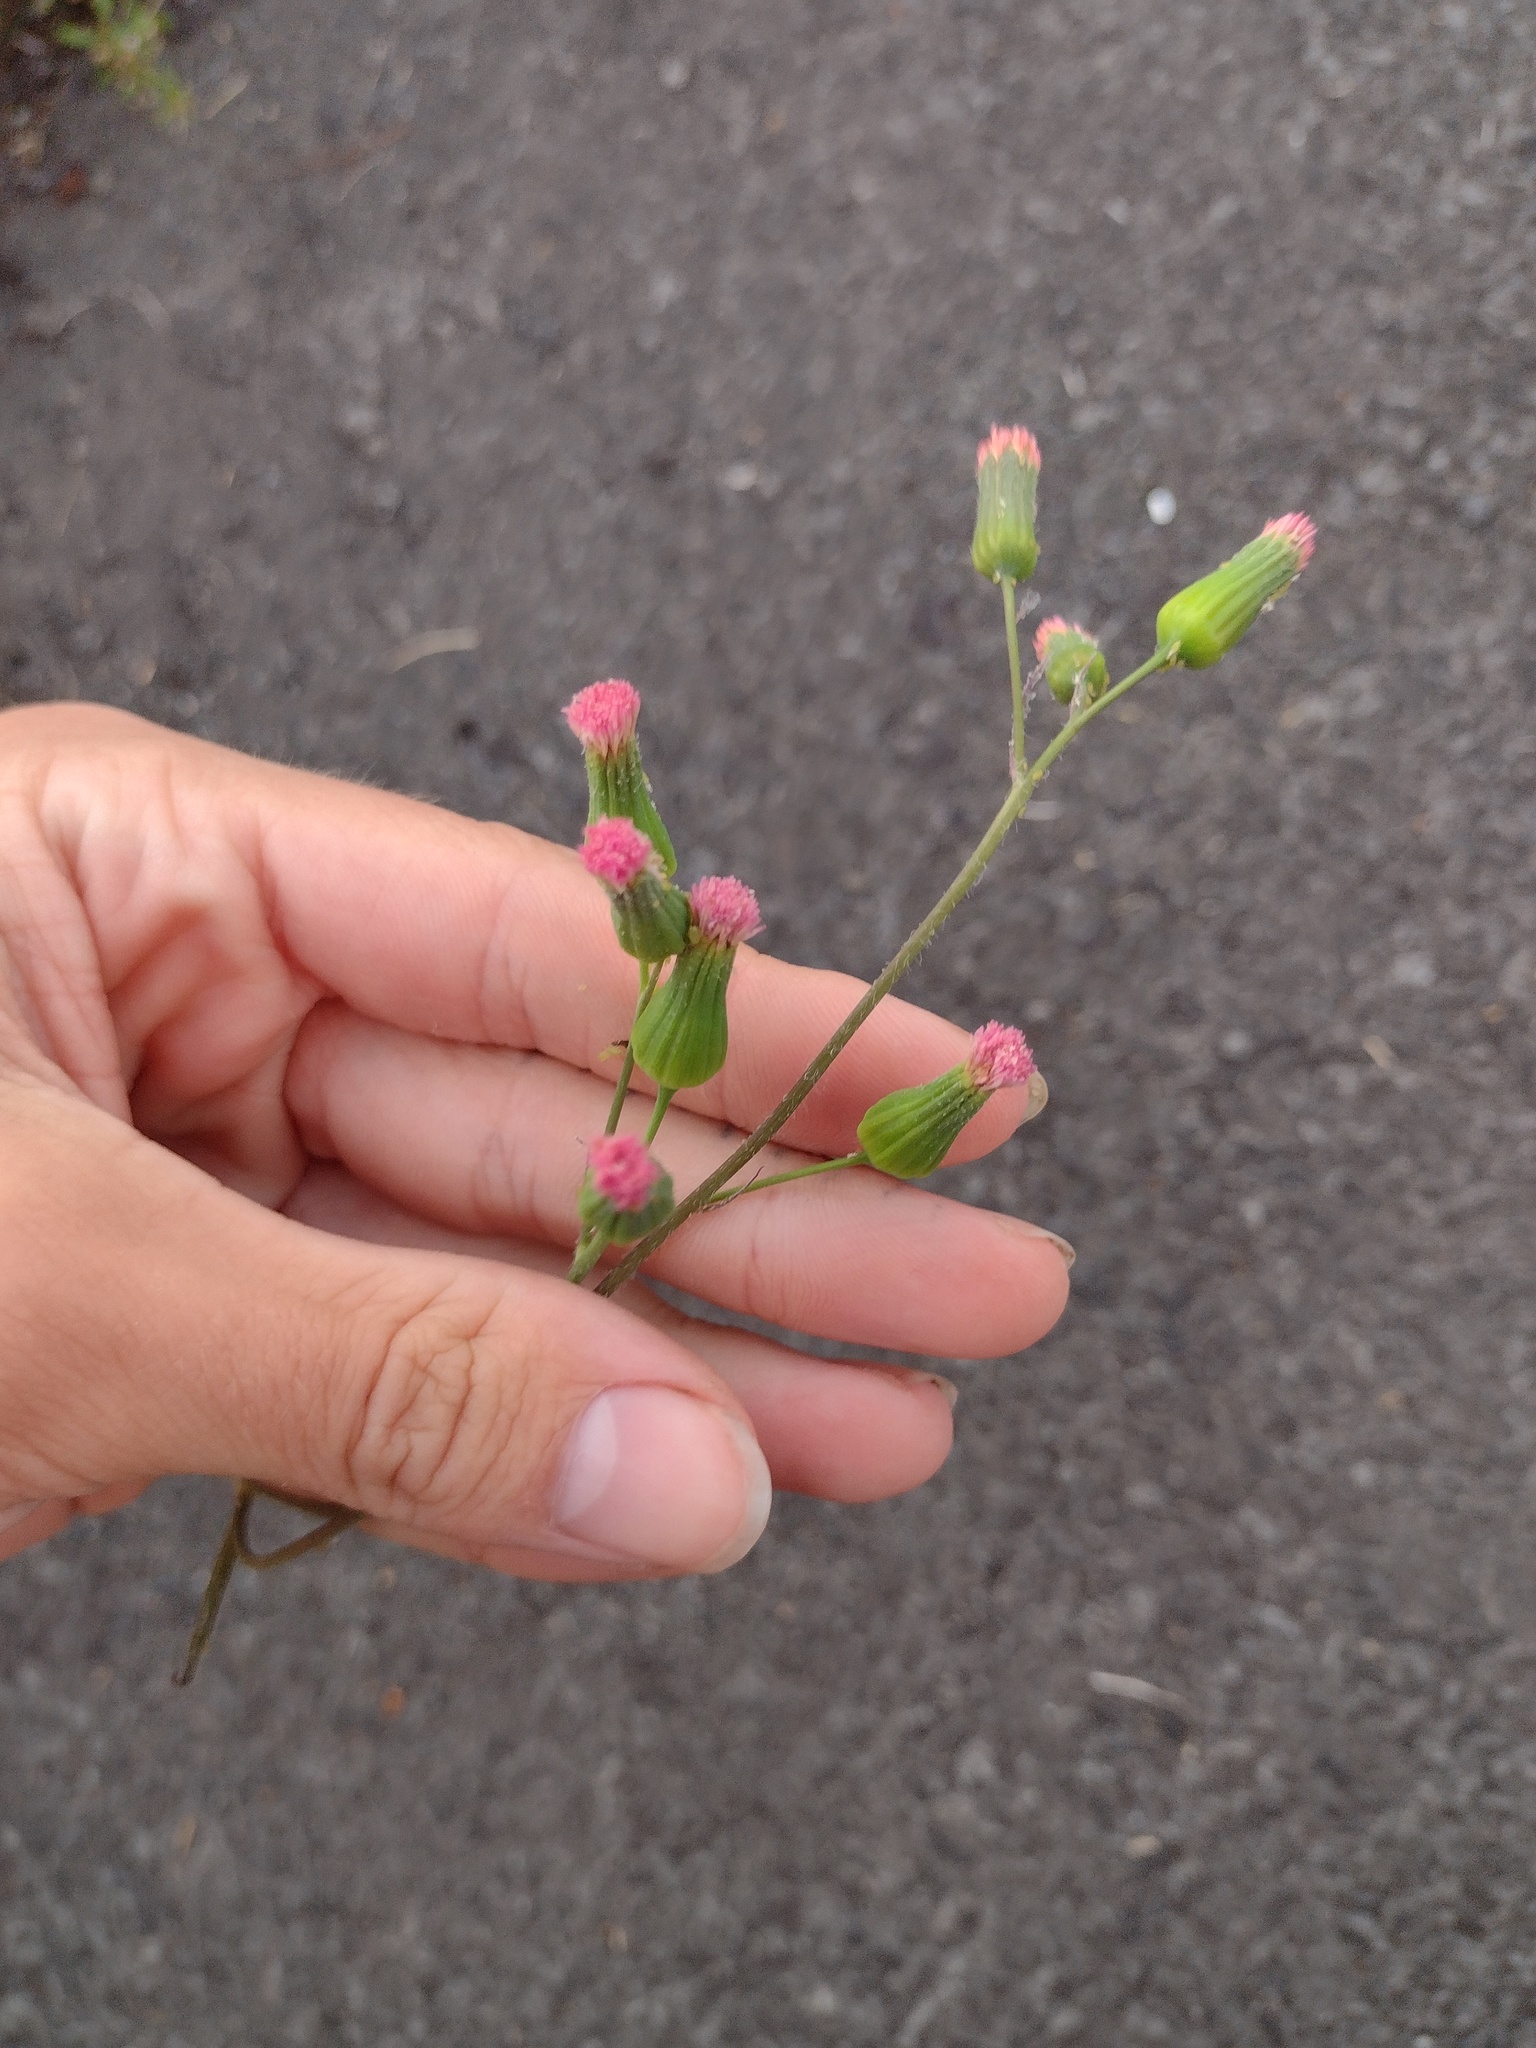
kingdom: Plantae
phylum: Tracheophyta
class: Magnoliopsida
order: Asterales
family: Asteraceae
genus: Emilia
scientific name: Emilia fosbergii
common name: Florida tasselflower
